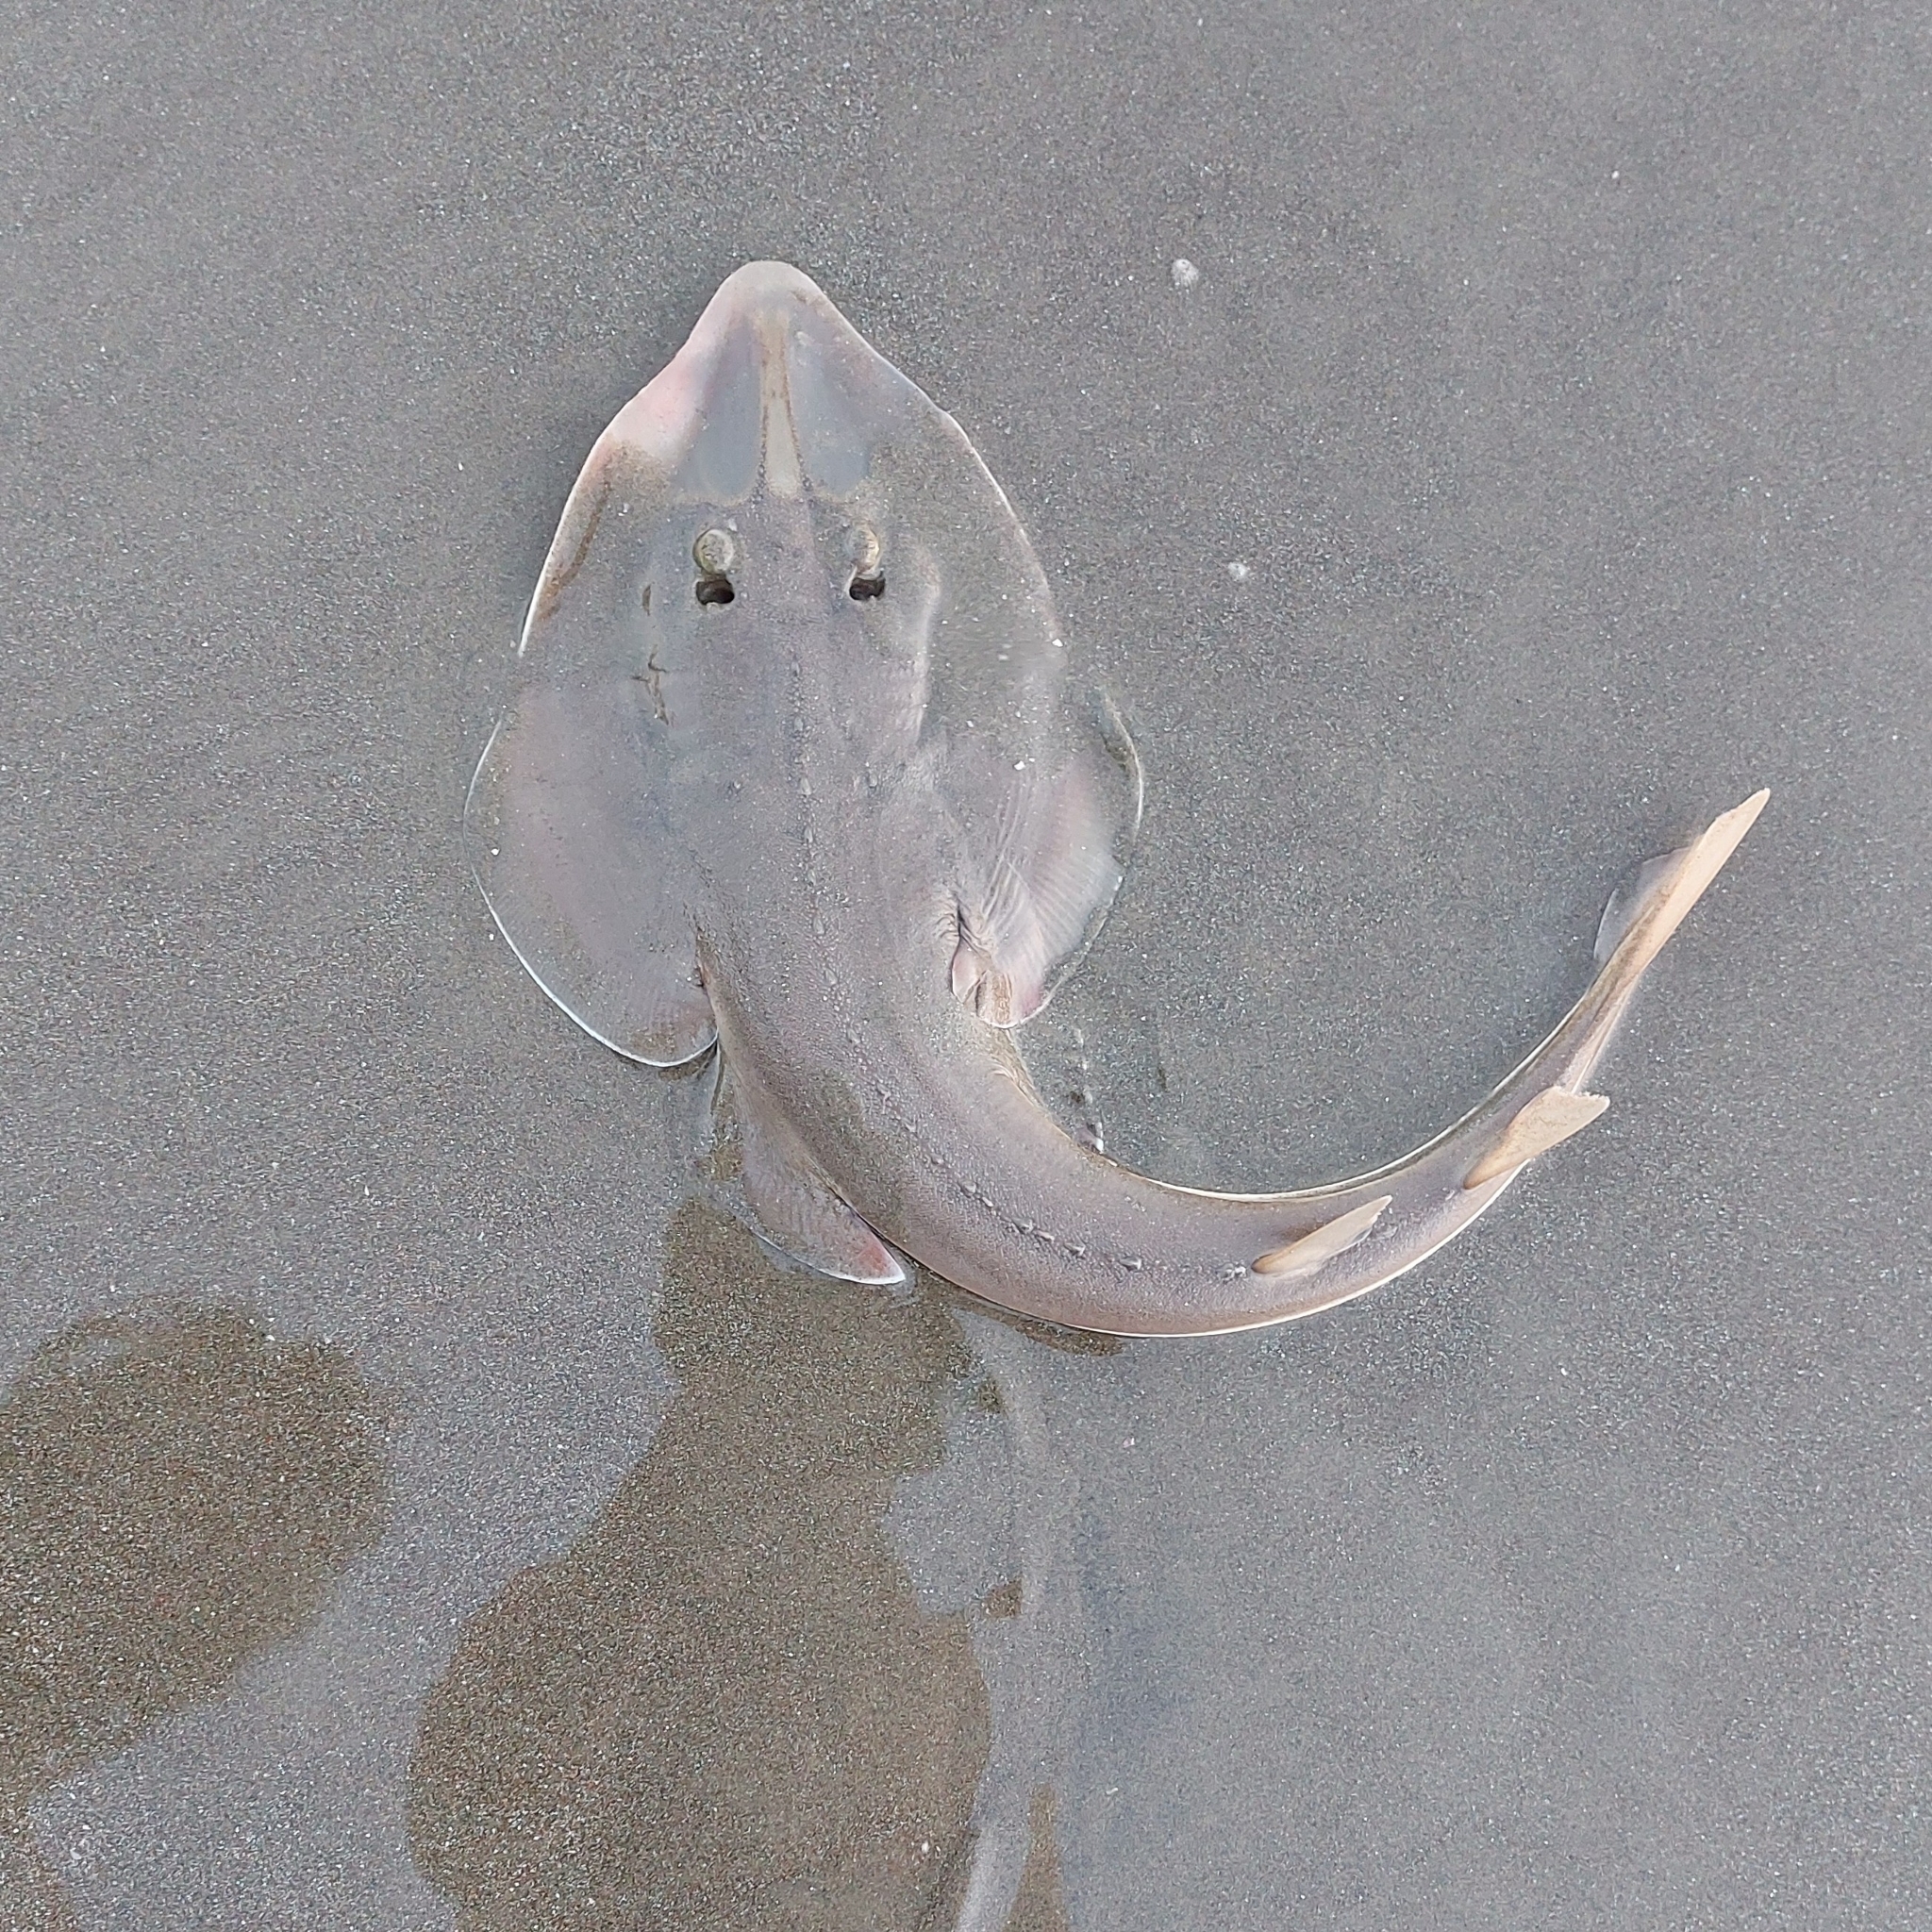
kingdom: Animalia
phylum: Chordata
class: Elasmobranchii
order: Rhinopristiformes
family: Glaucostegidae
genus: Glaucostegus
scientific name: Glaucostegus obtusus
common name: Widenose guitarfish
